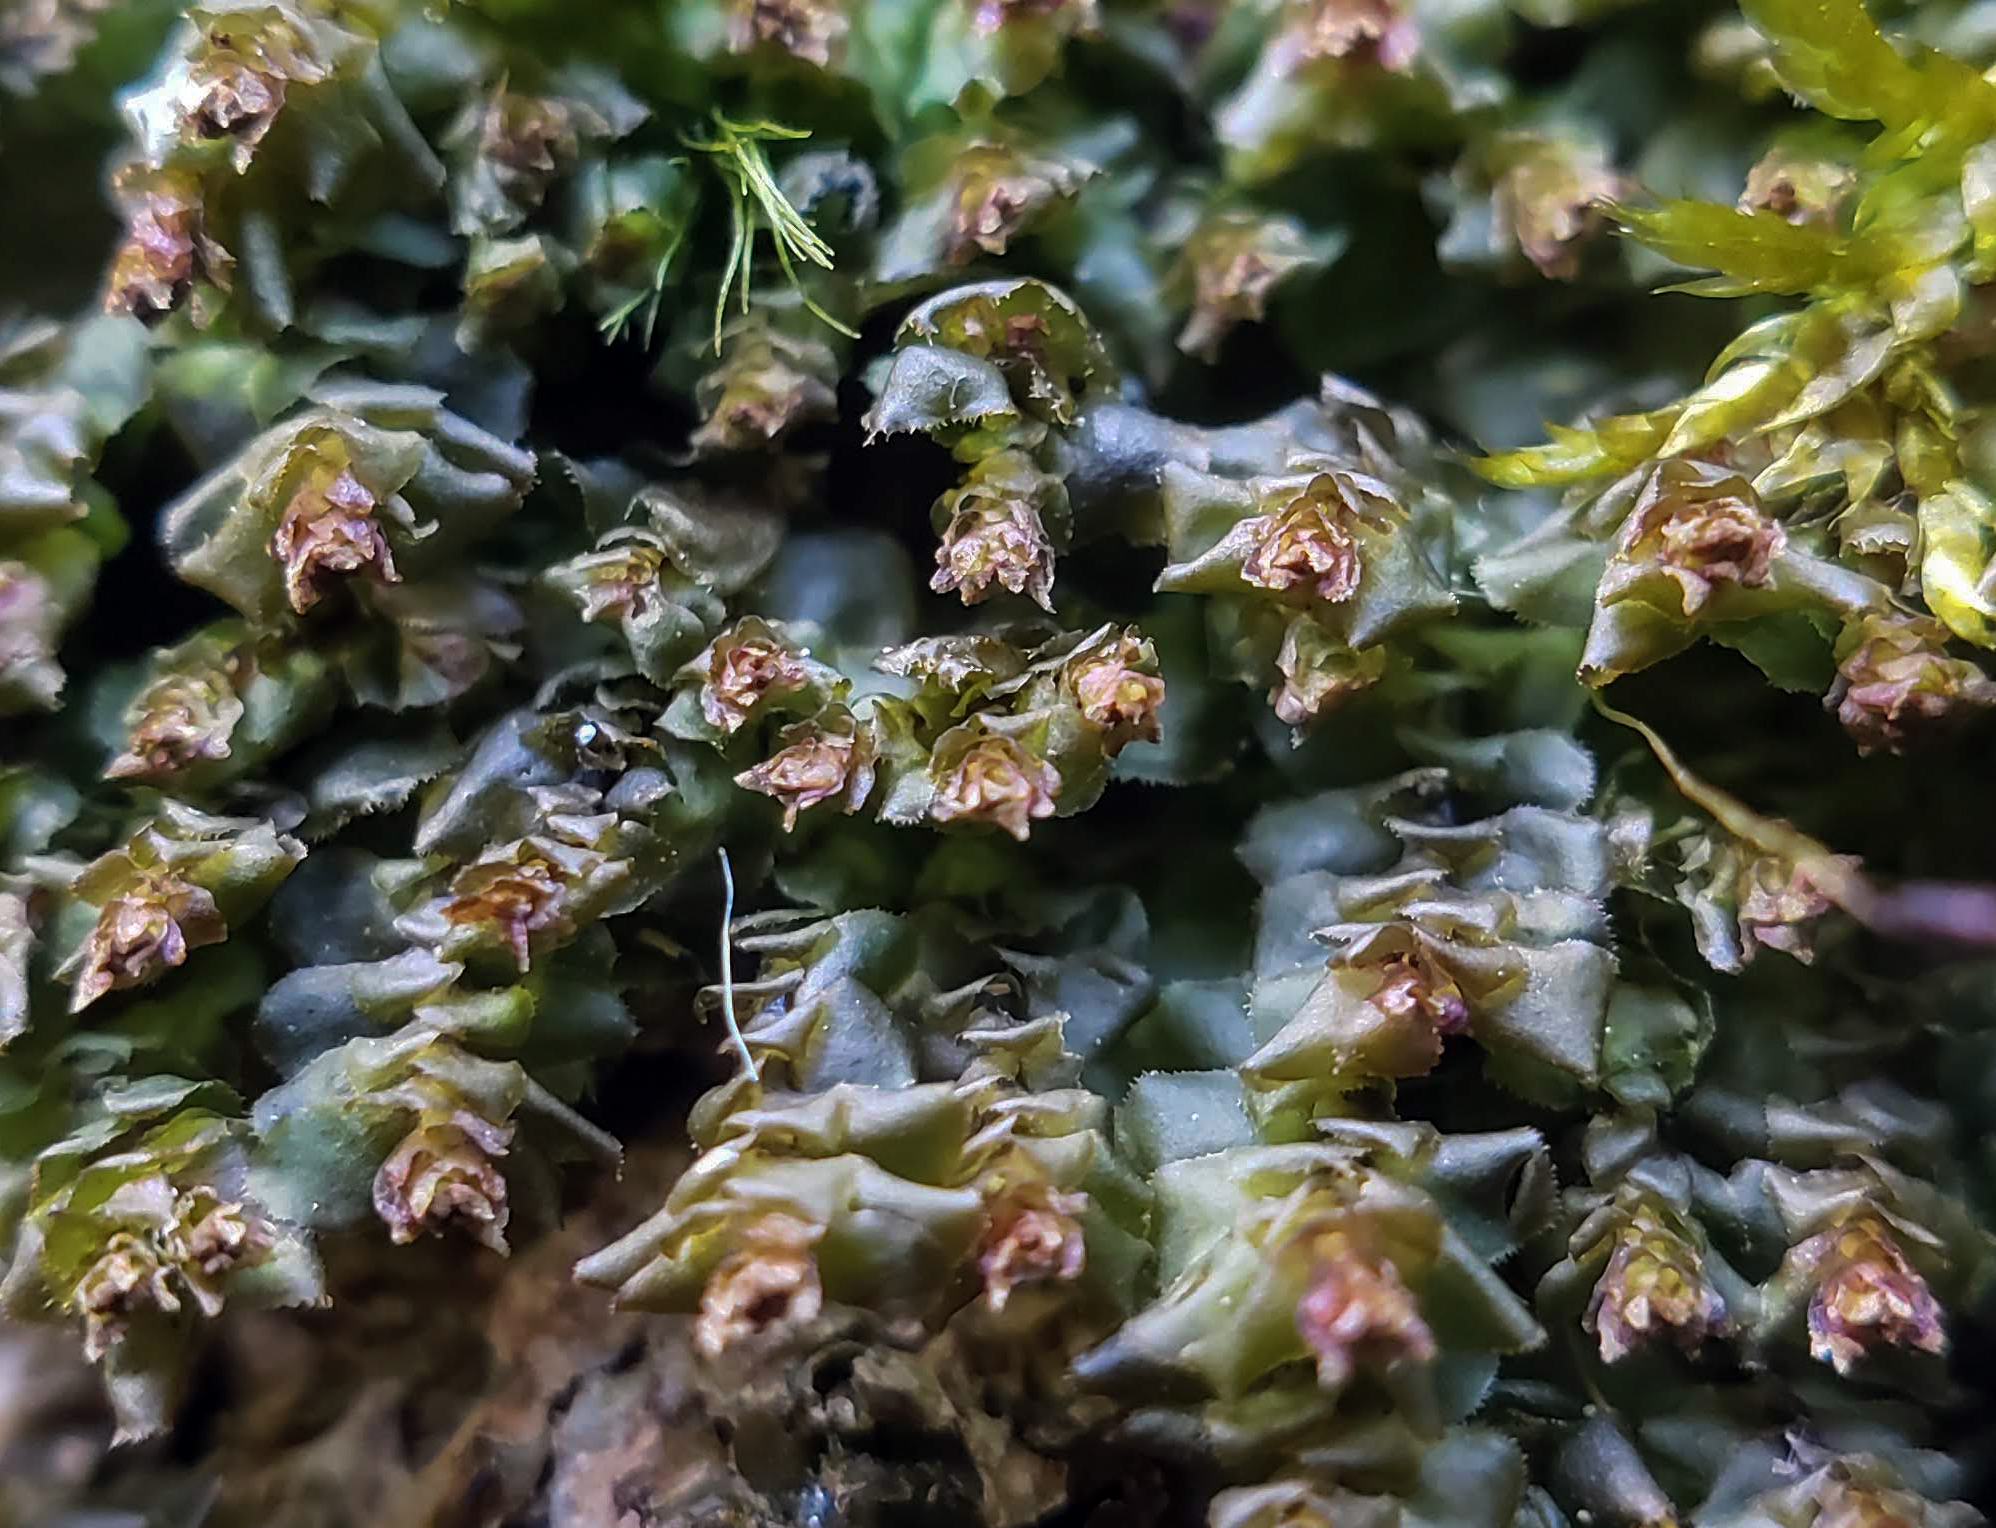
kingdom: Plantae
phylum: Marchantiophyta
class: Jungermanniopsida
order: Jungermanniales
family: Scapaniaceae
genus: Scapania
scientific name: Scapania nemorea
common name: Grove earwort
